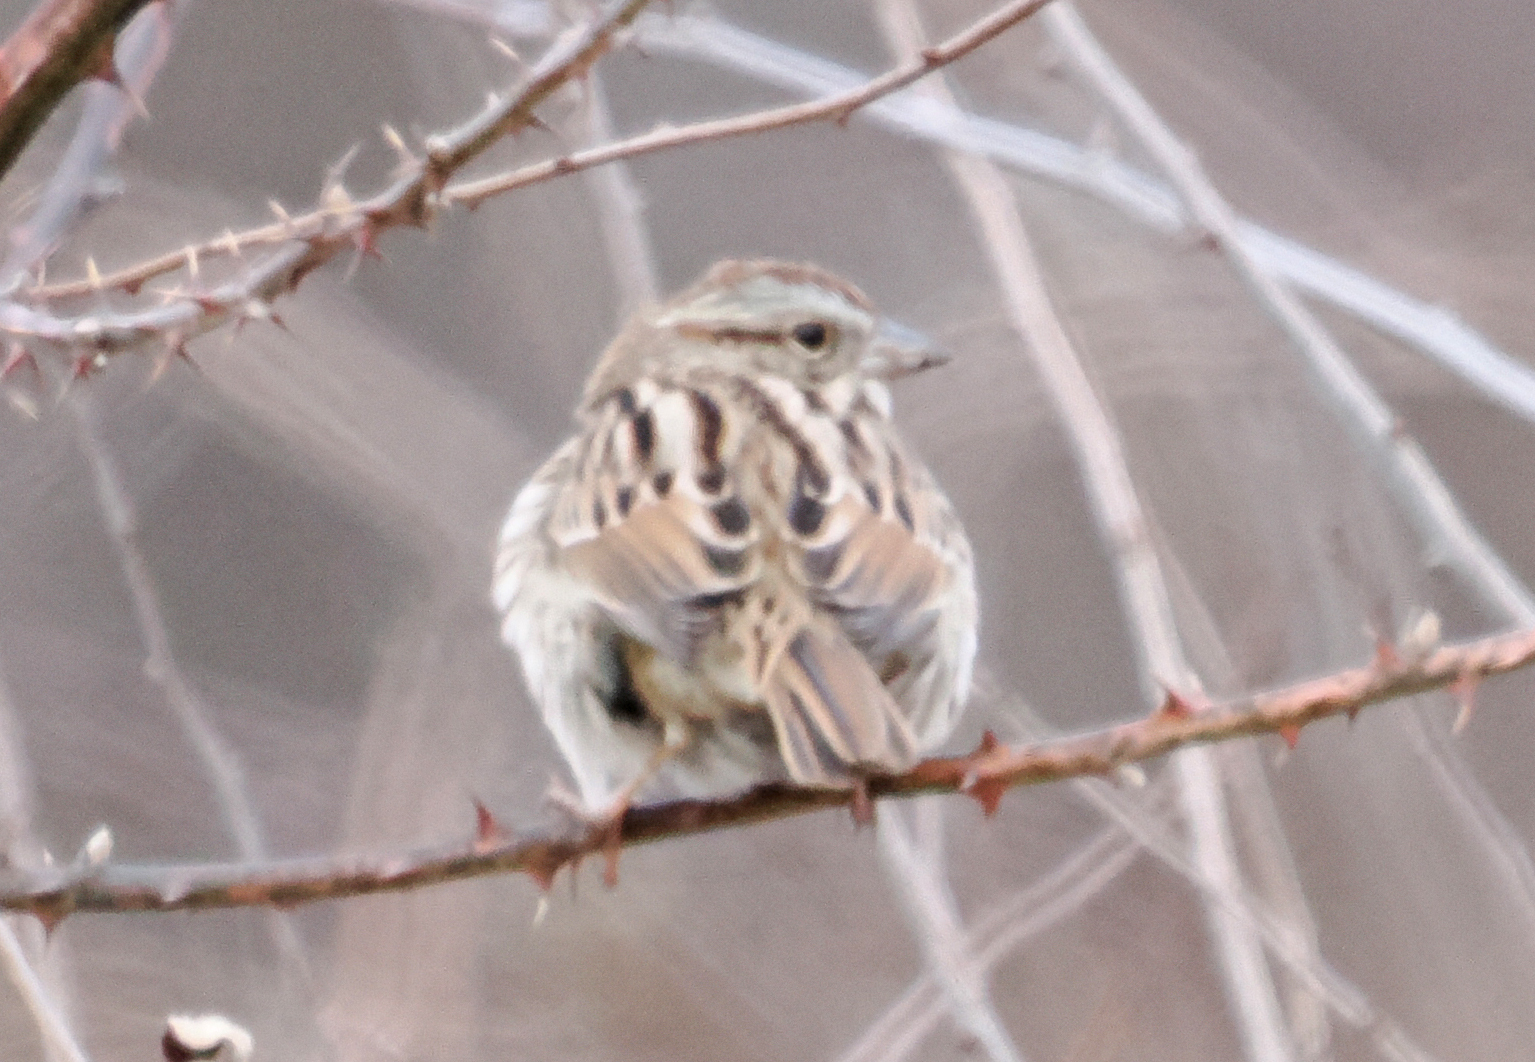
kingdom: Animalia
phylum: Chordata
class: Aves
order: Passeriformes
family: Passerellidae
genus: Melospiza
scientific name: Melospiza melodia
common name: Song sparrow
